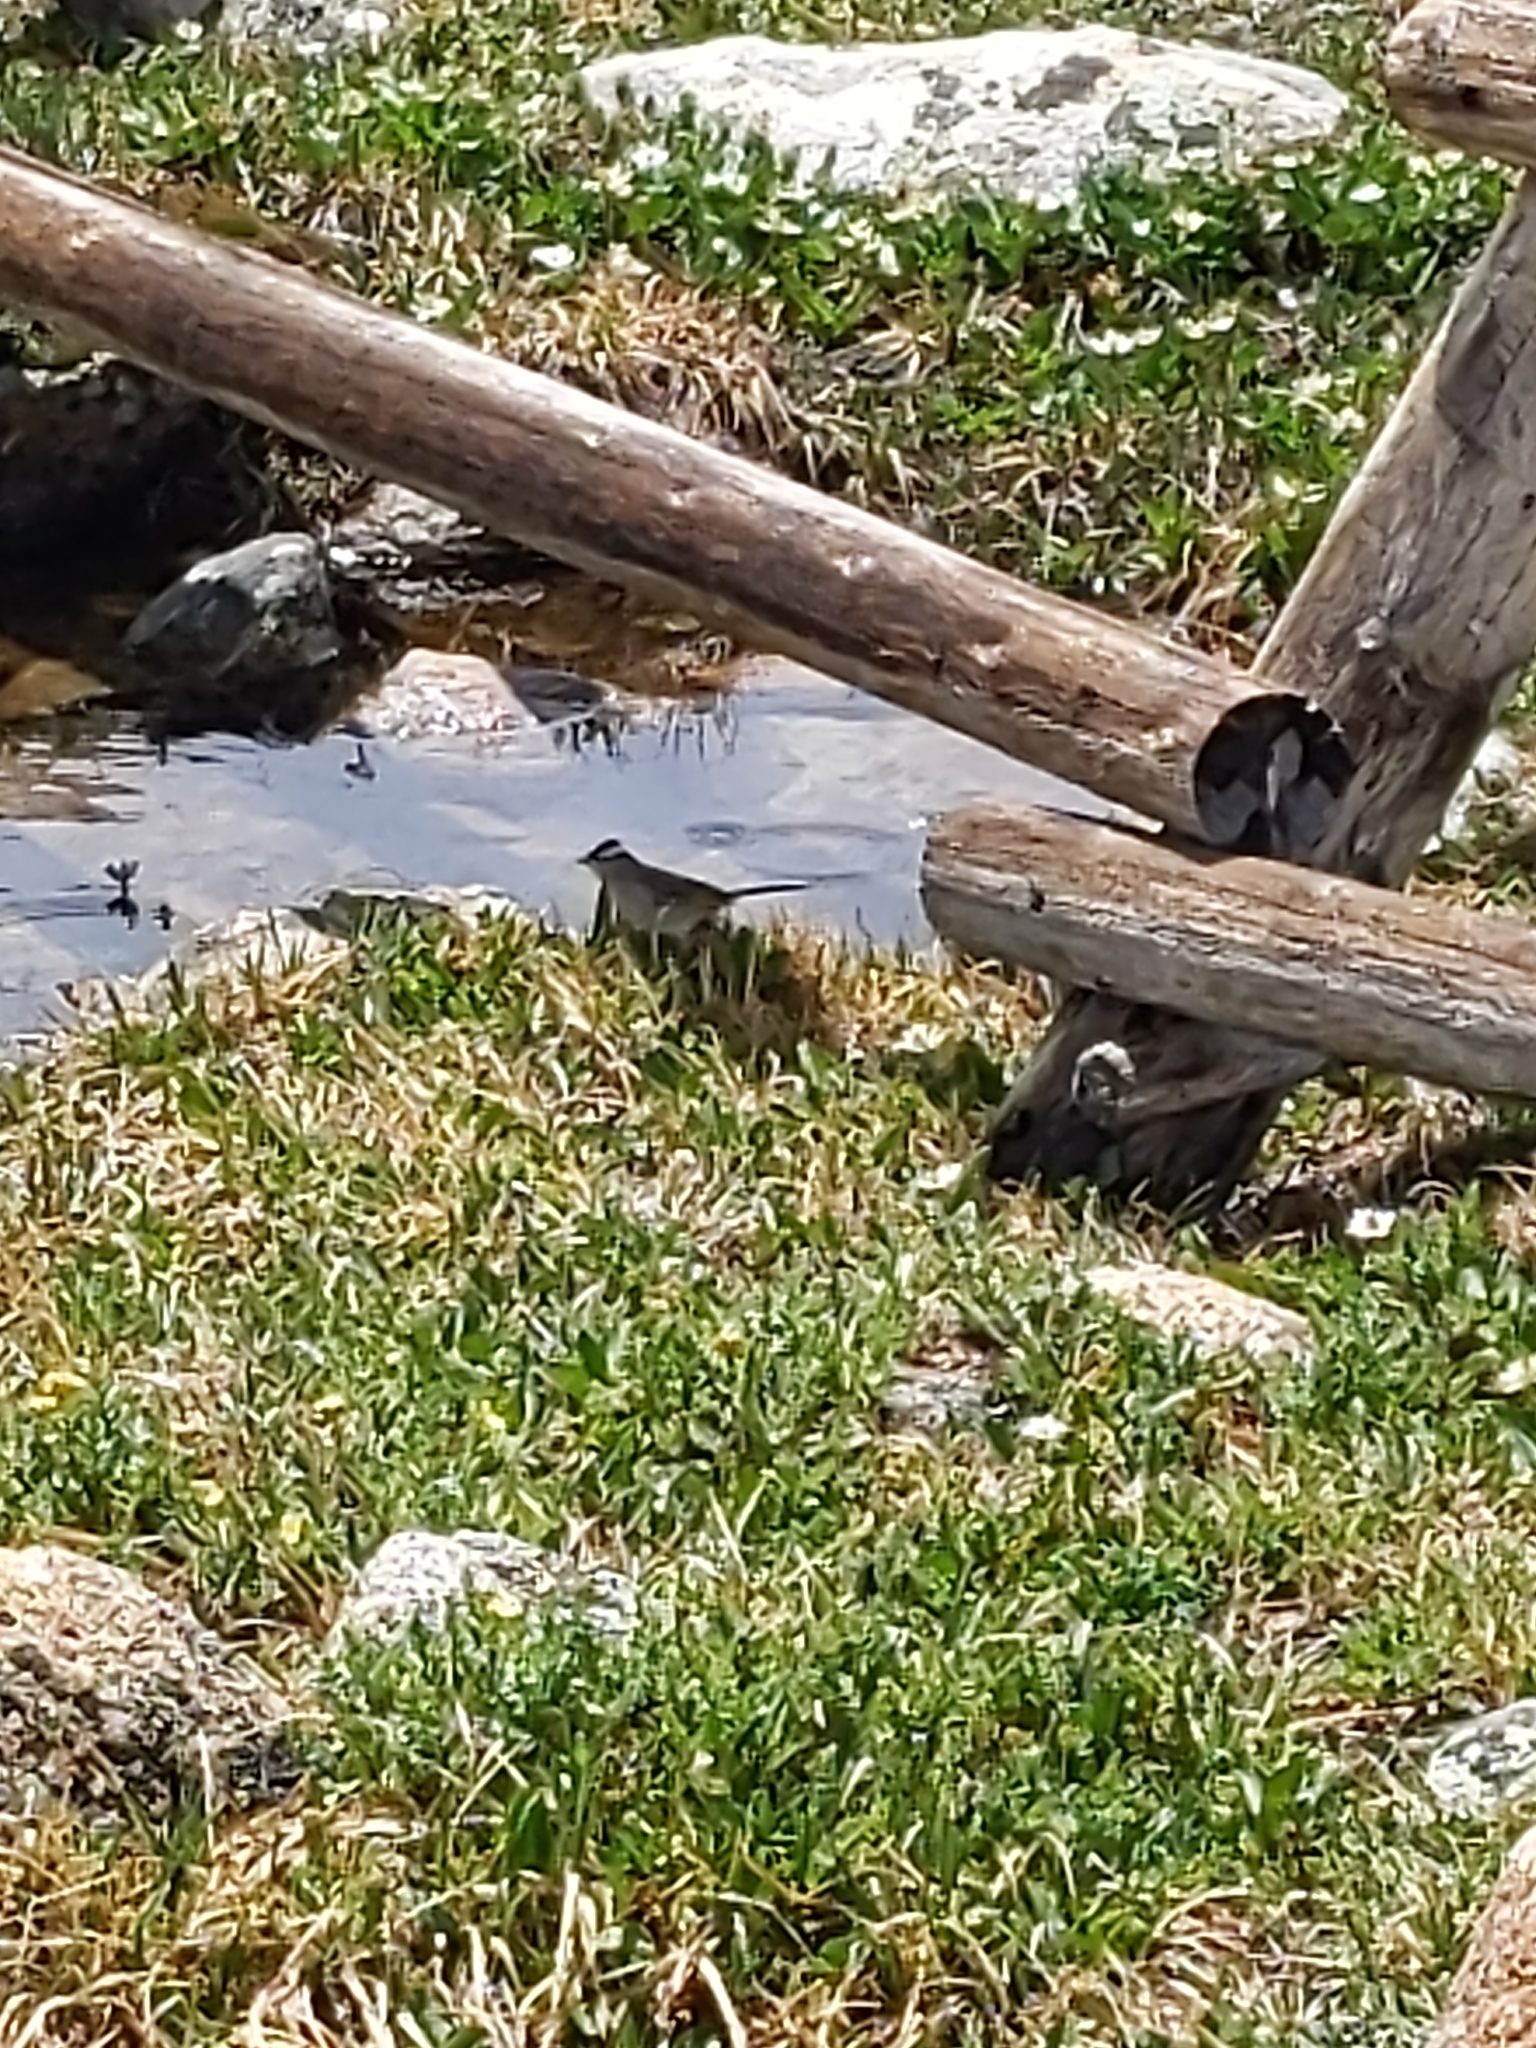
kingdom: Animalia
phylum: Chordata
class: Aves
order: Passeriformes
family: Passerellidae
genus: Zonotrichia
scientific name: Zonotrichia leucophrys
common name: White-crowned sparrow
